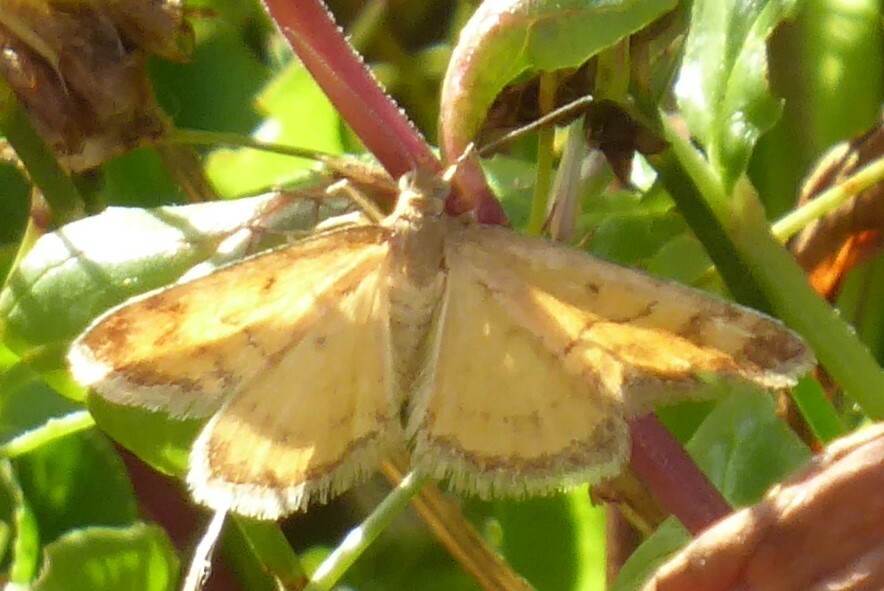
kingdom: Animalia
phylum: Arthropoda
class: Insecta
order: Lepidoptera
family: Geometridae
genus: Asaphodes
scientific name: Asaphodes abrogata
